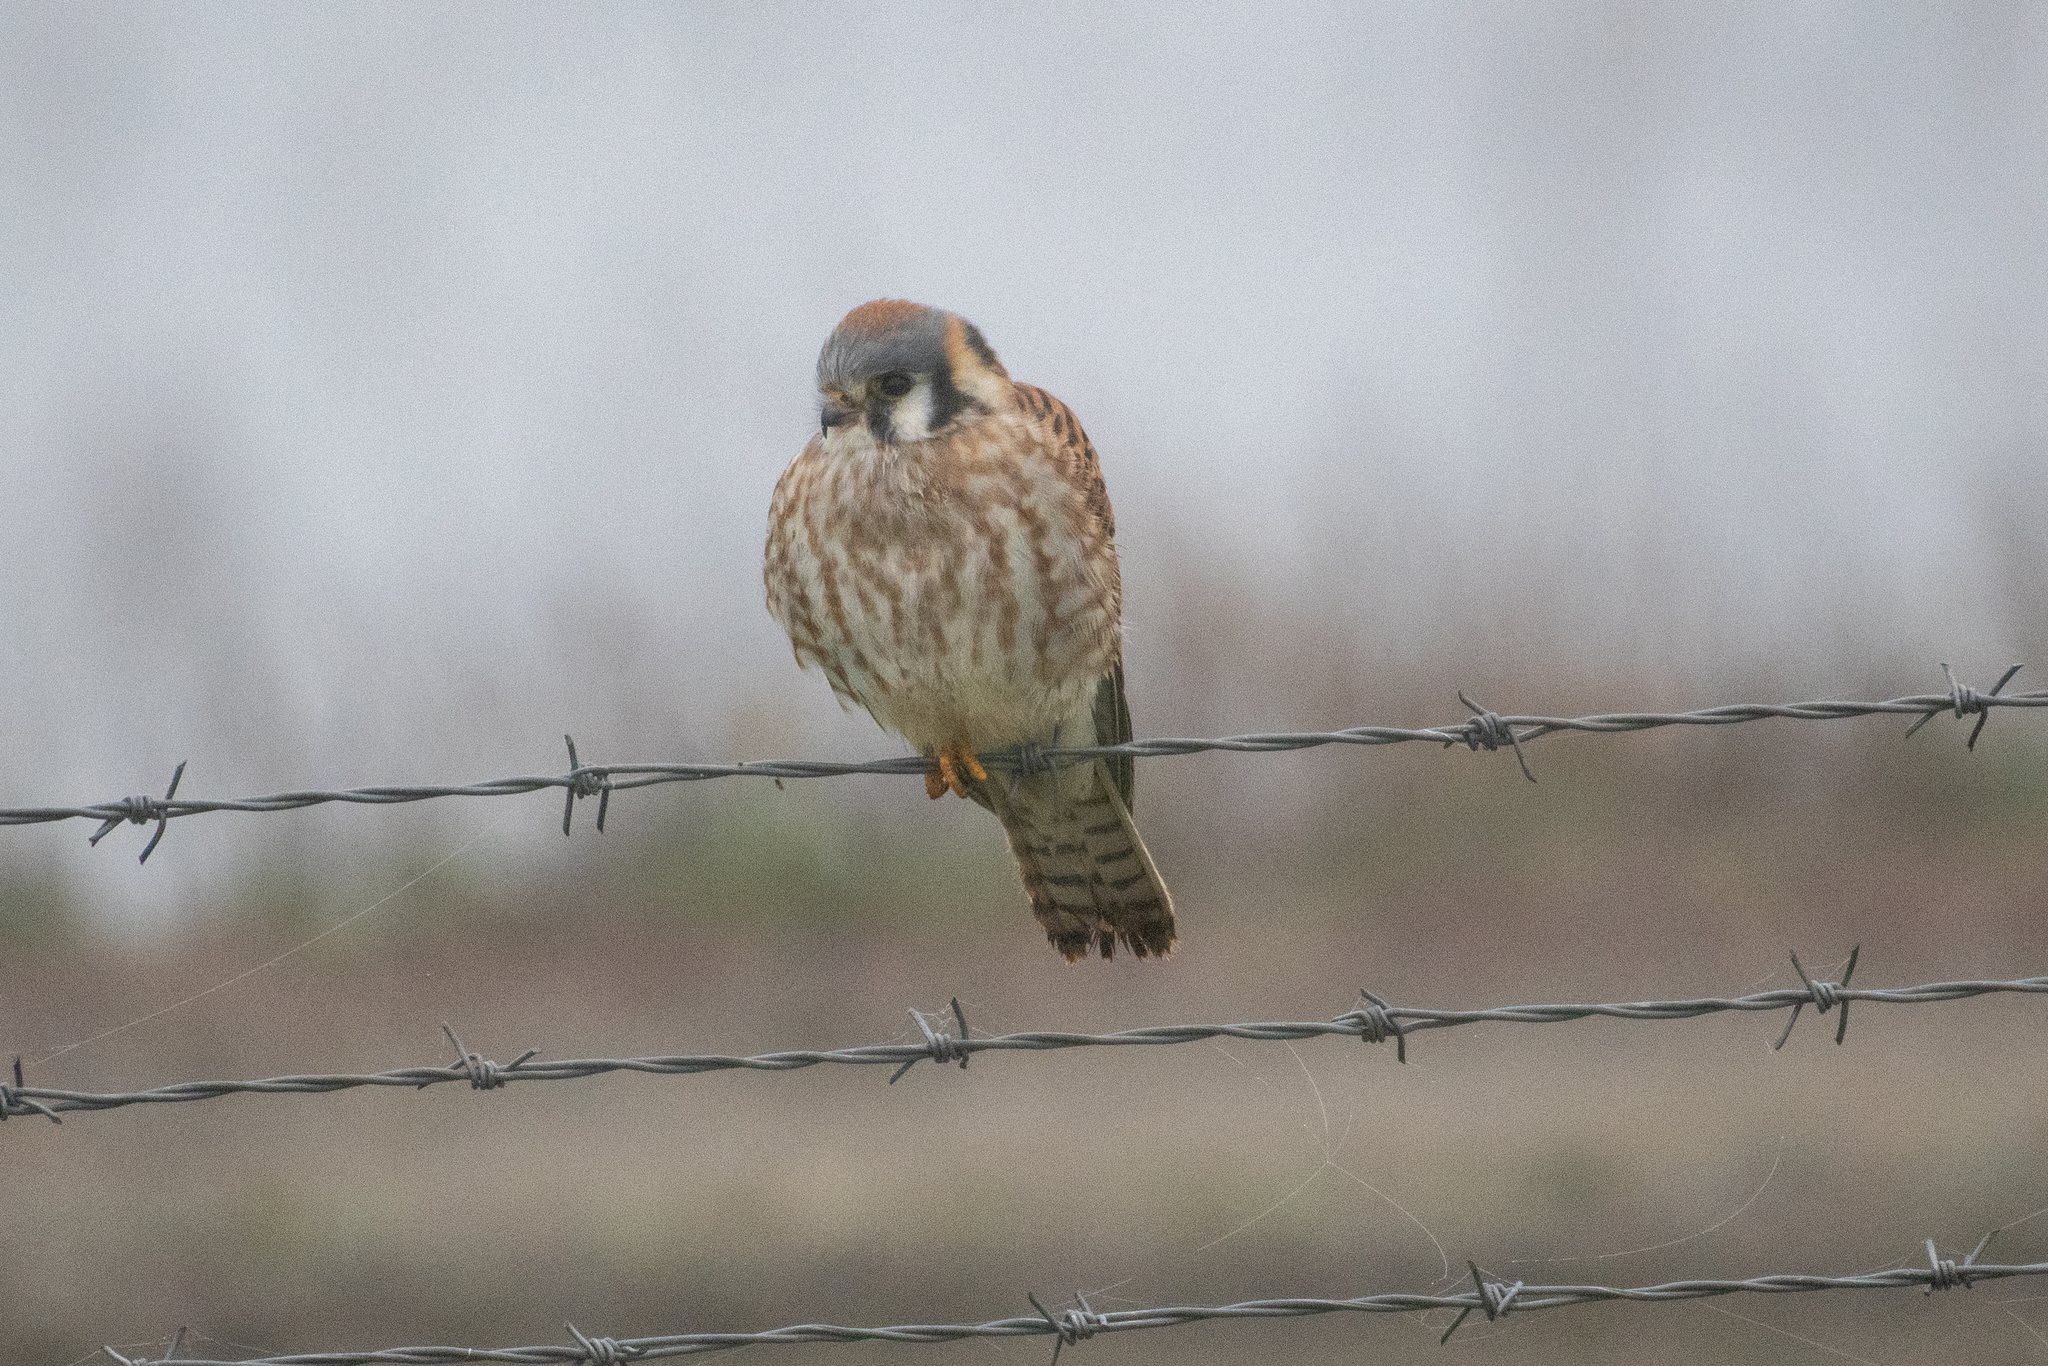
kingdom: Animalia
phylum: Chordata
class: Aves
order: Falconiformes
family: Falconidae
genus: Falco
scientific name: Falco sparverius
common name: American kestrel
